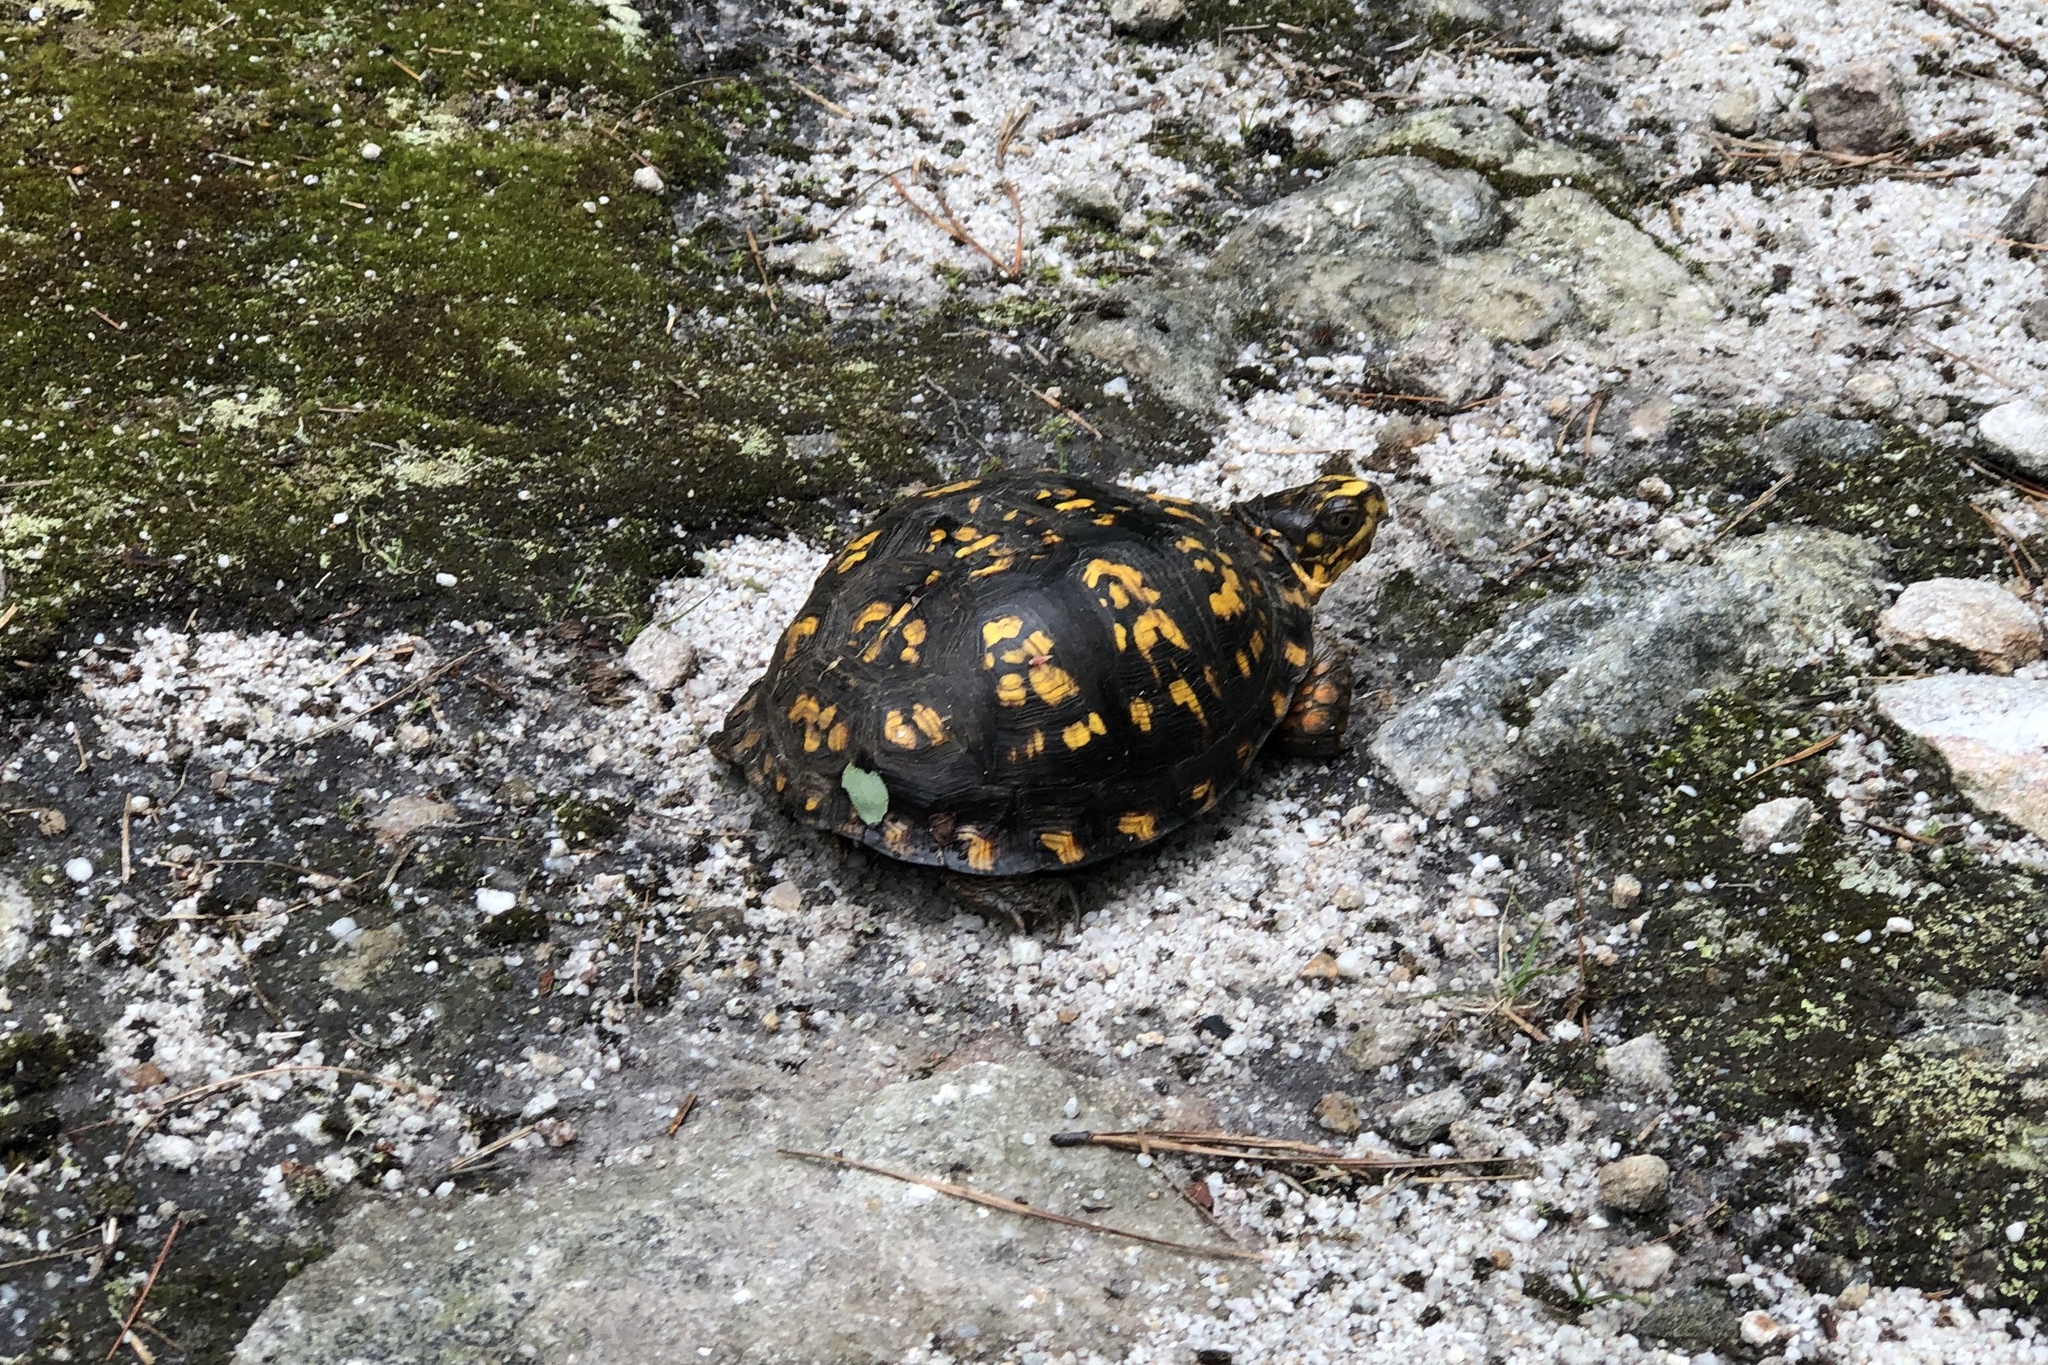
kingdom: Animalia
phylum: Chordata
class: Testudines
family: Emydidae
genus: Terrapene
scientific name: Terrapene carolina
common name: Common box turtle
